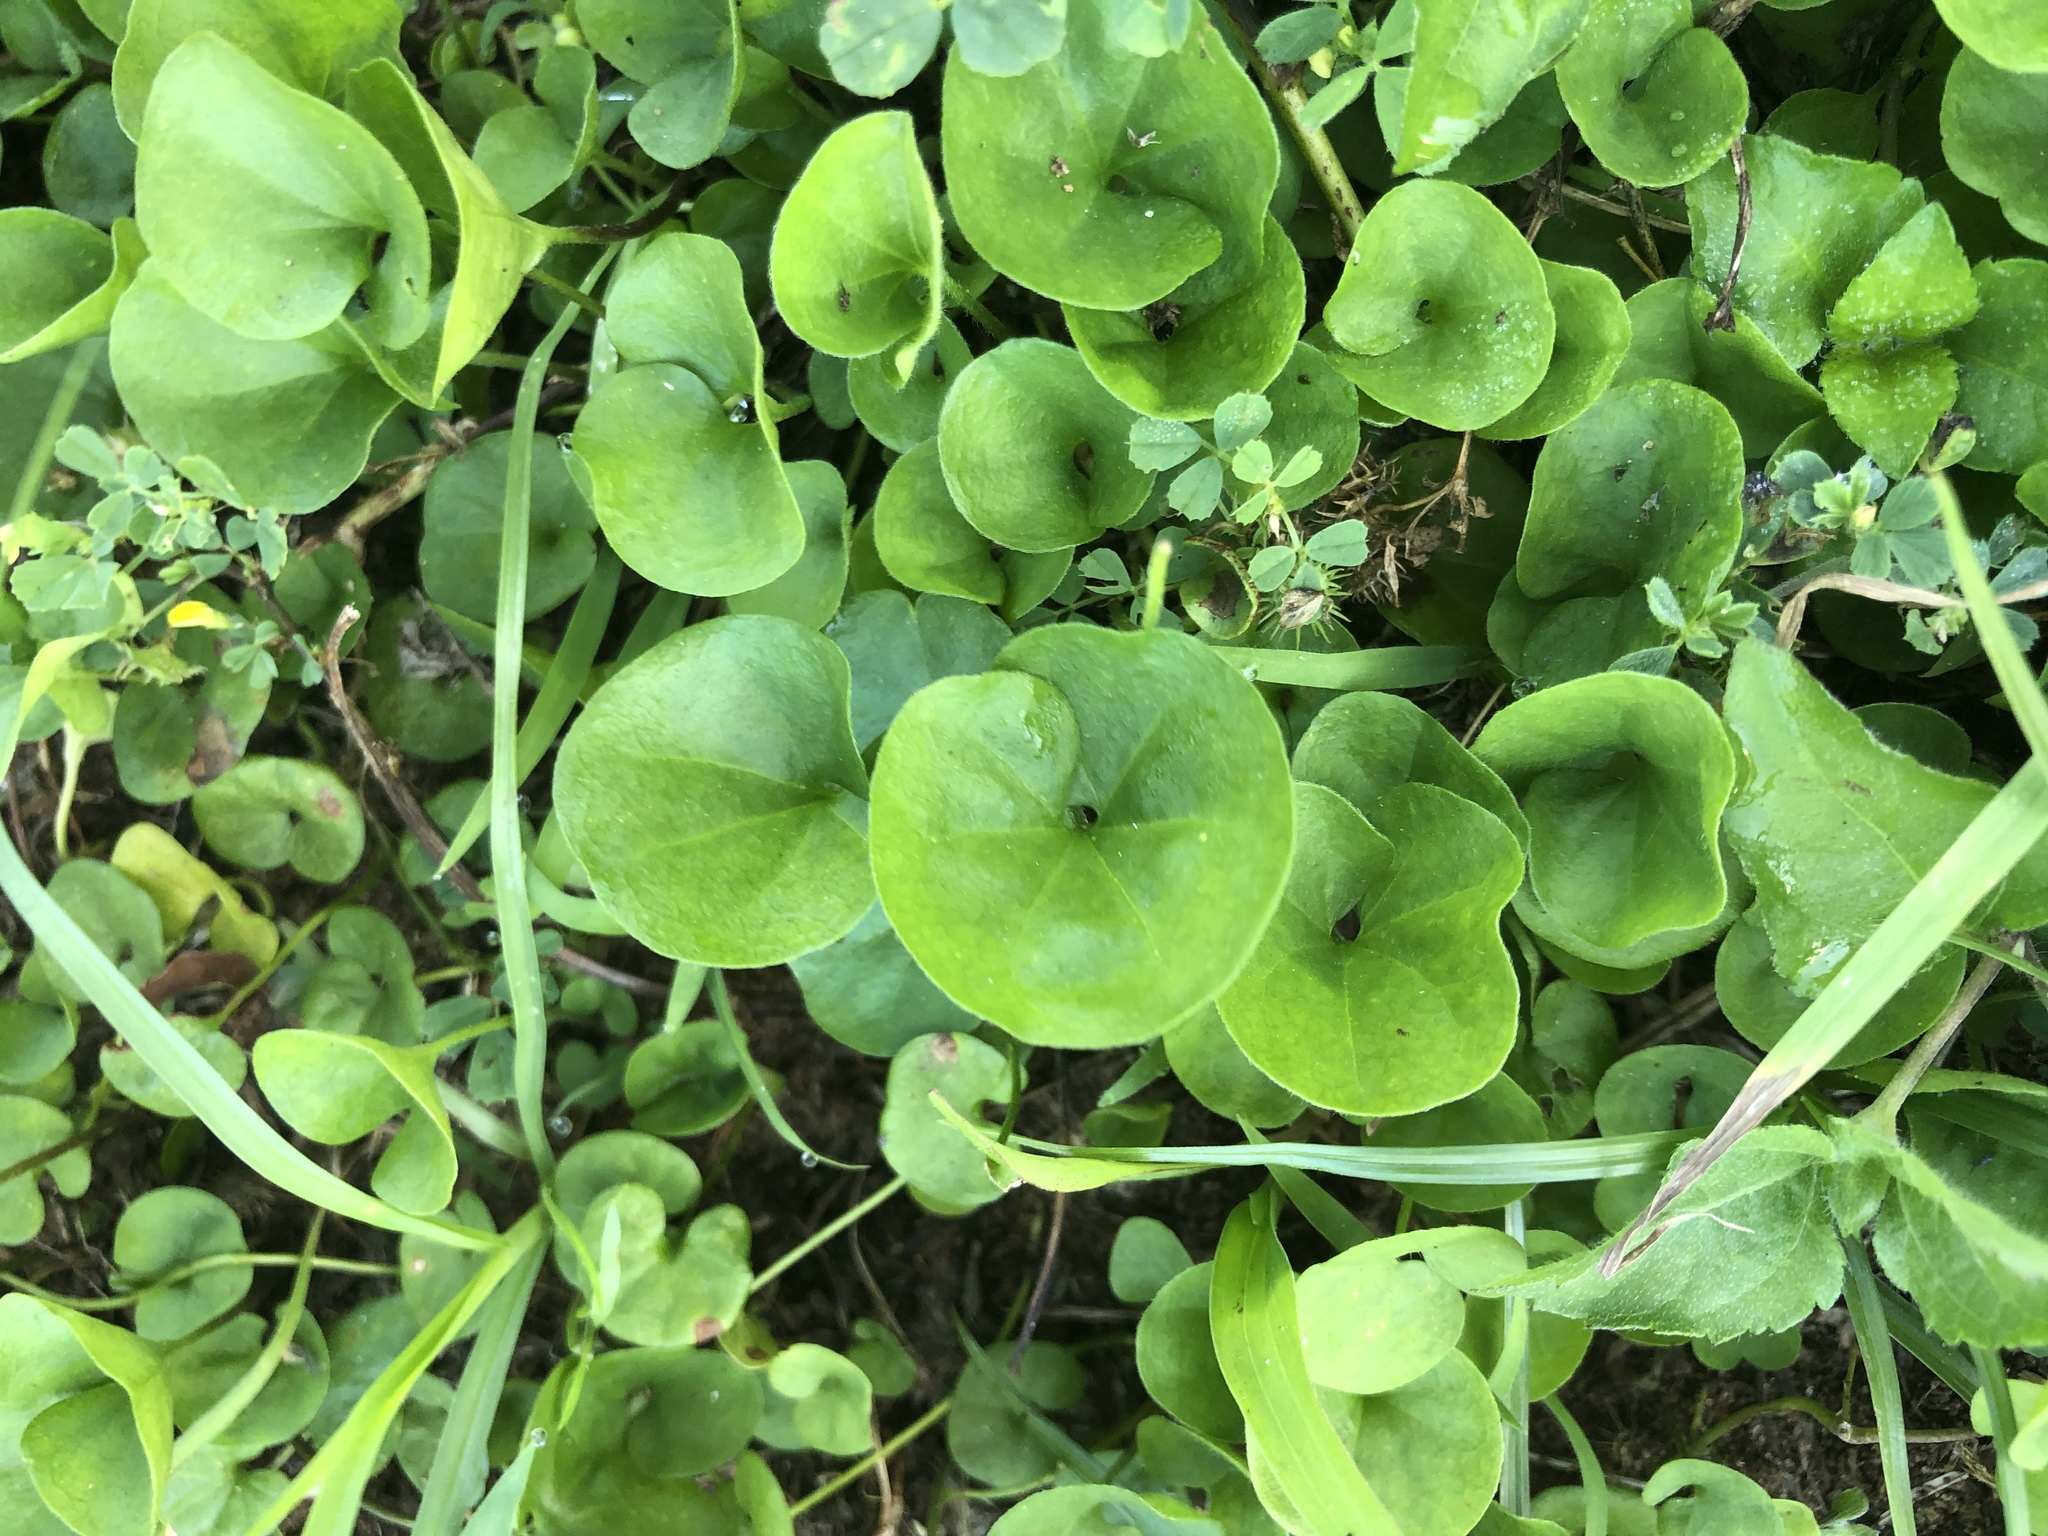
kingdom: Plantae
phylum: Tracheophyta
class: Magnoliopsida
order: Solanales
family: Convolvulaceae
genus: Dichondra
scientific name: Dichondra carolinensis
